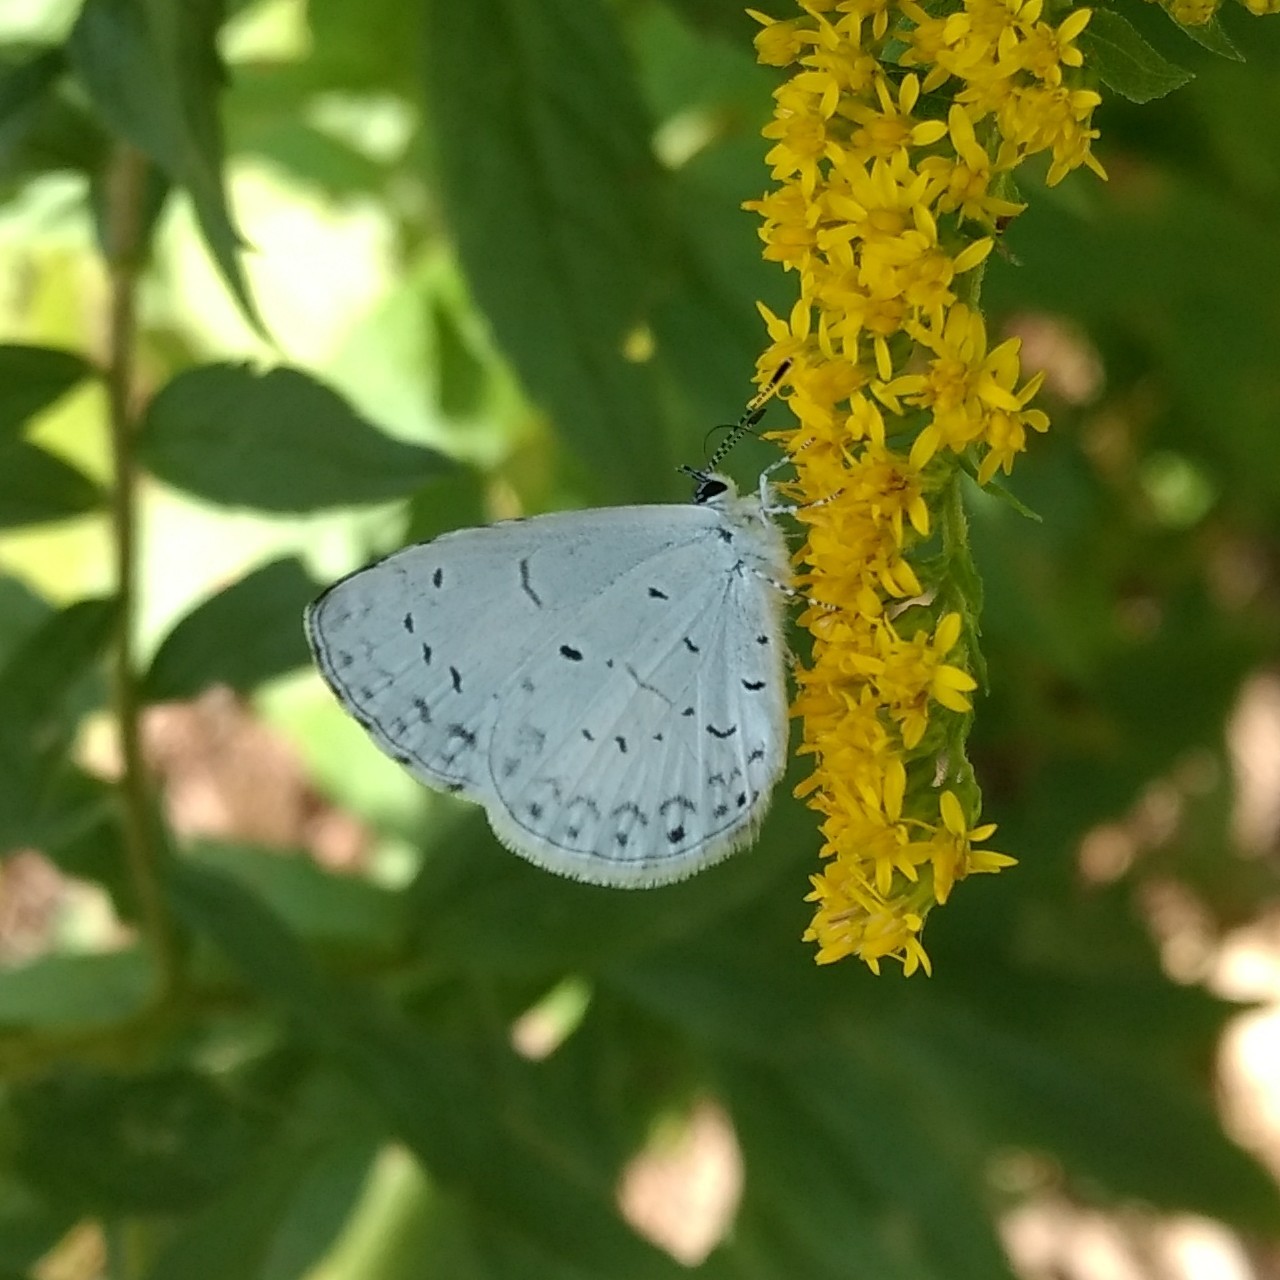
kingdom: Animalia
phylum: Arthropoda
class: Insecta
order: Lepidoptera
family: Lycaenidae
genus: Cyaniris
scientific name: Cyaniris neglecta
